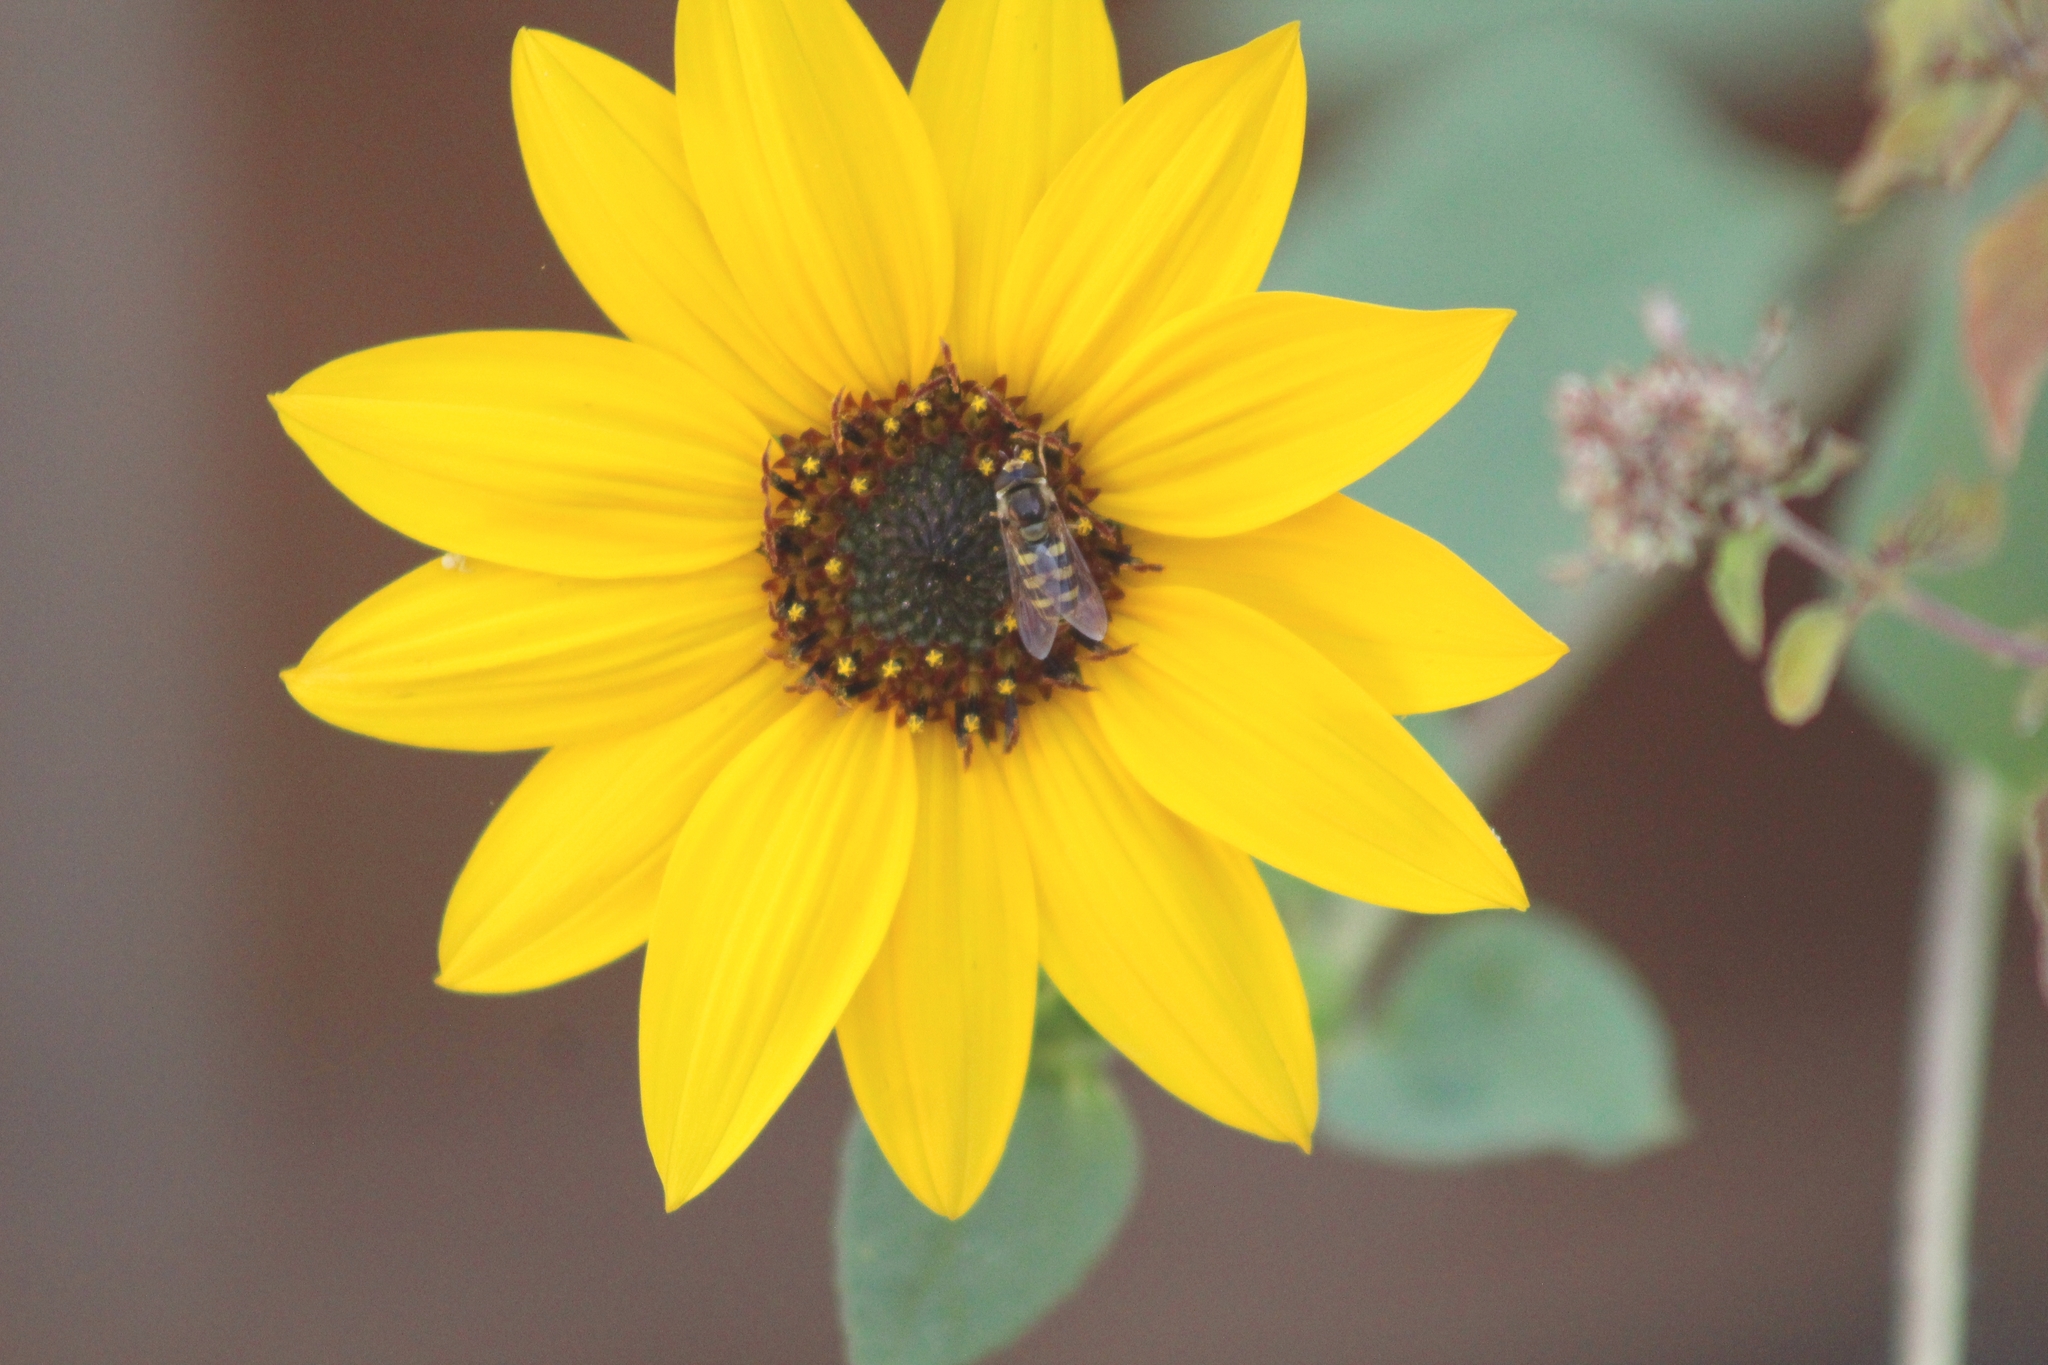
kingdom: Animalia
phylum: Arthropoda
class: Insecta
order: Diptera
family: Syrphidae
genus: Eupeodes
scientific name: Eupeodes fumipennis
